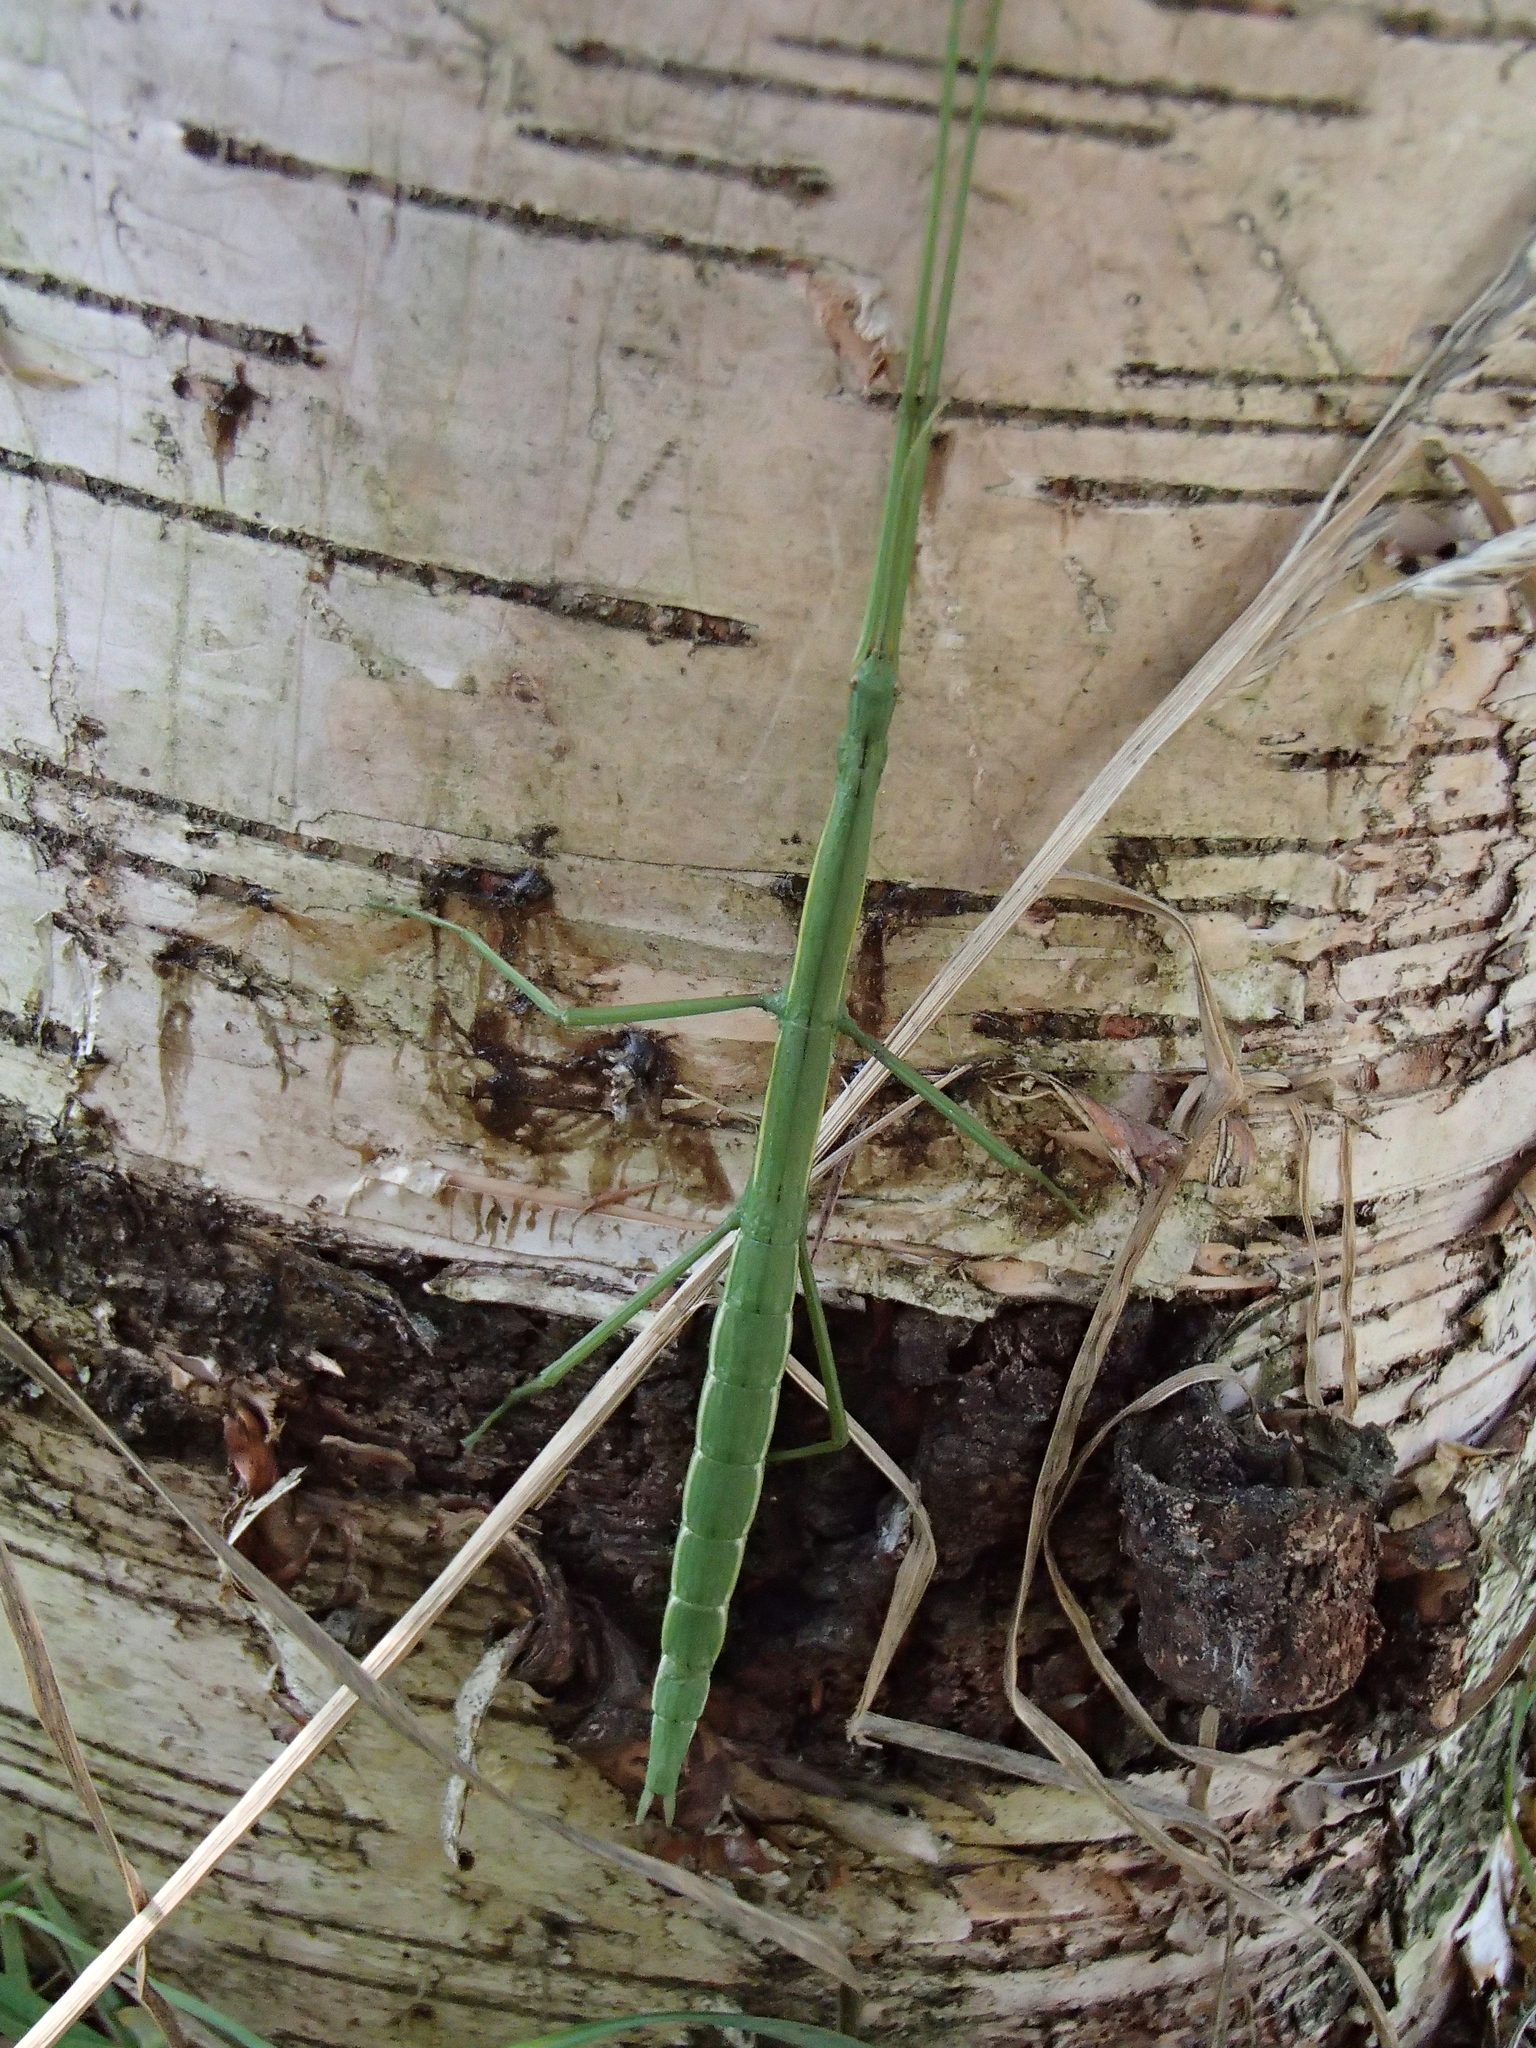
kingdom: Animalia
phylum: Arthropoda
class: Insecta
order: Phasmida
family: Phasmatidae
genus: Clitarchus
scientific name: Clitarchus hookeri
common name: Smooth stick insect
